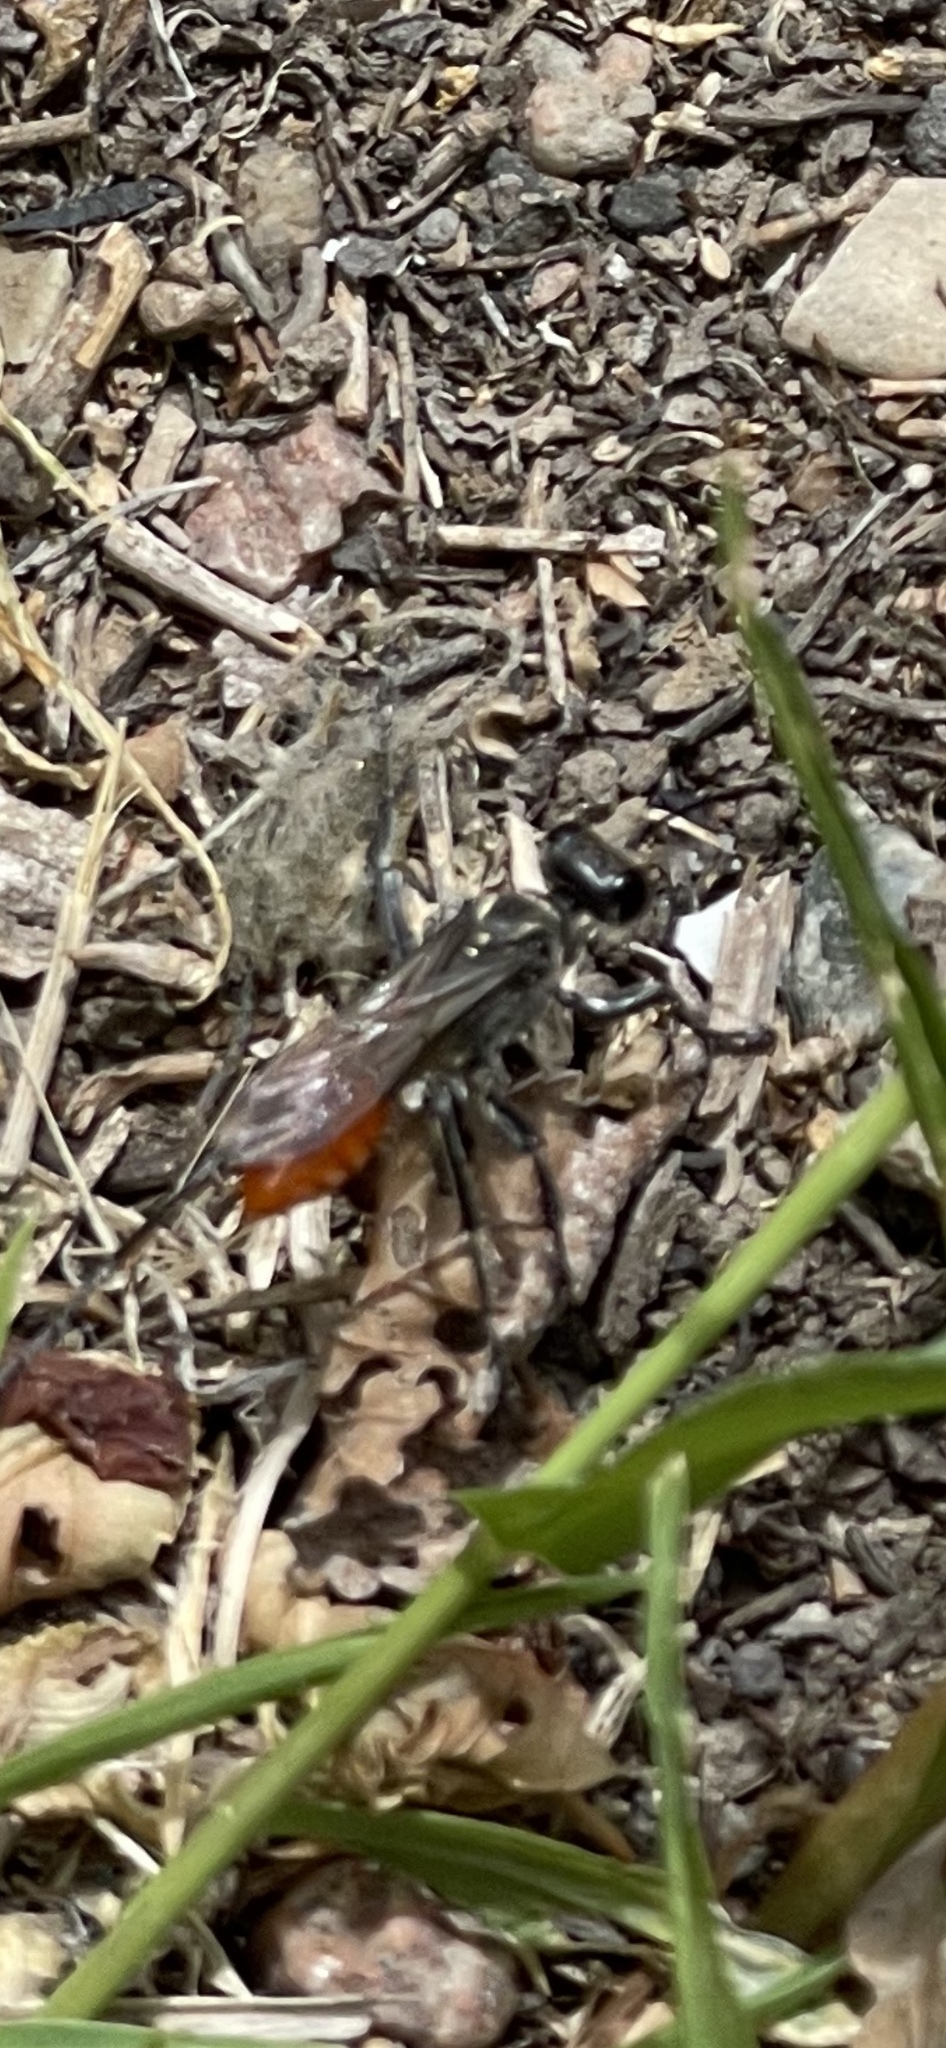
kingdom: Animalia
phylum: Arthropoda
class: Insecta
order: Hymenoptera
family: Sphecidae
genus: Prionyx
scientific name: Prionyx
